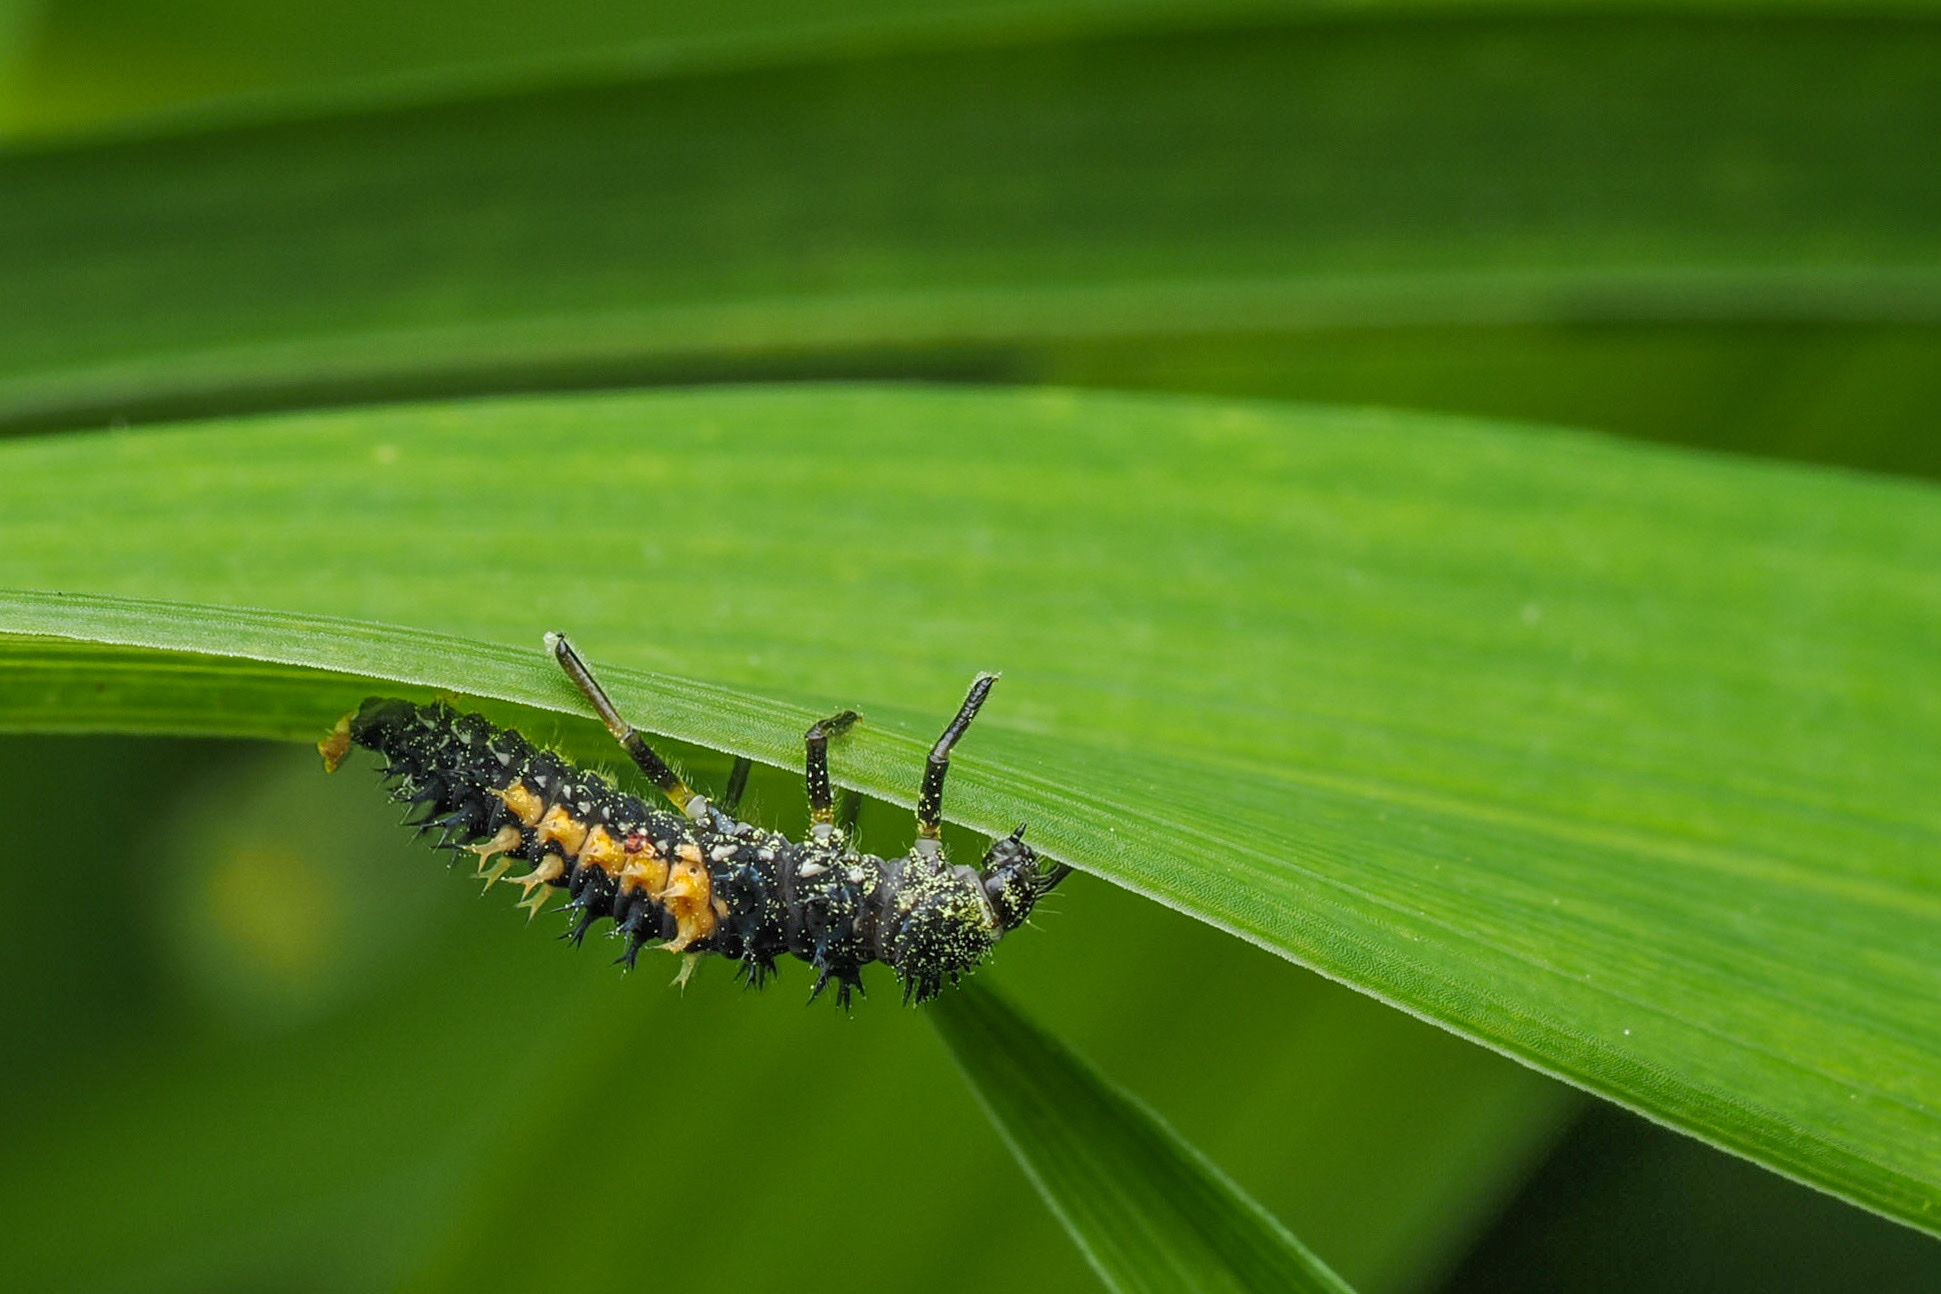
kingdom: Animalia
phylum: Arthropoda
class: Insecta
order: Coleoptera
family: Coccinellidae
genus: Harmonia
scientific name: Harmonia axyridis
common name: Harlequin ladybird
